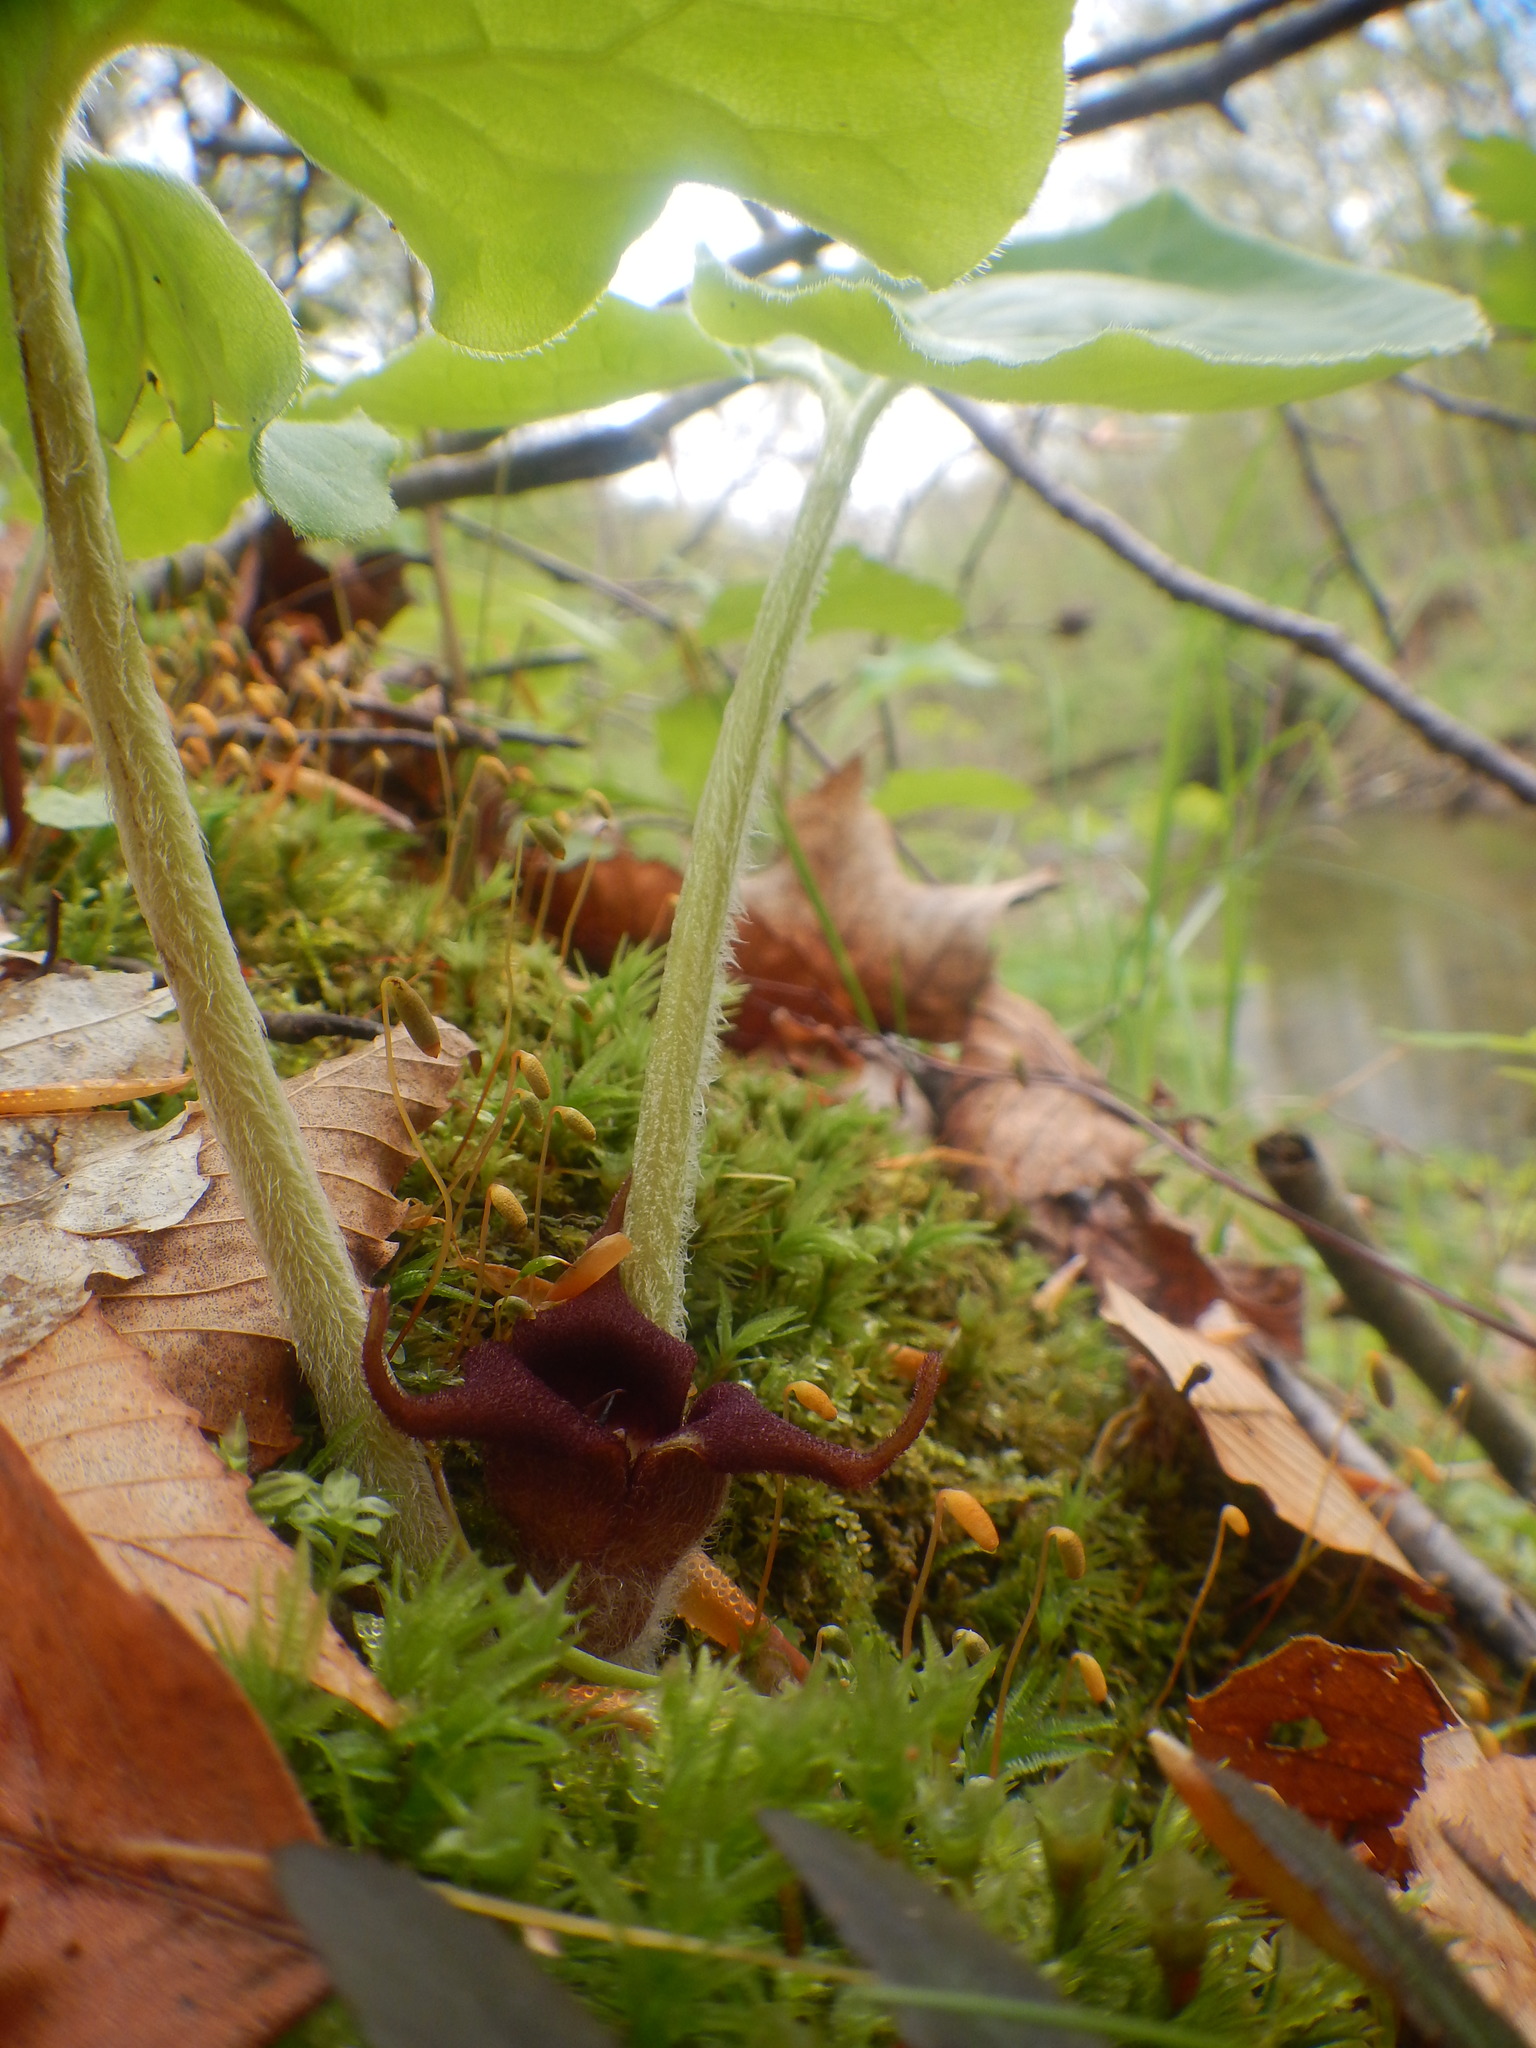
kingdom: Plantae
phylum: Tracheophyta
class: Magnoliopsida
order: Piperales
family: Aristolochiaceae
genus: Asarum
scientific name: Asarum canadense
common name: Wild ginger
